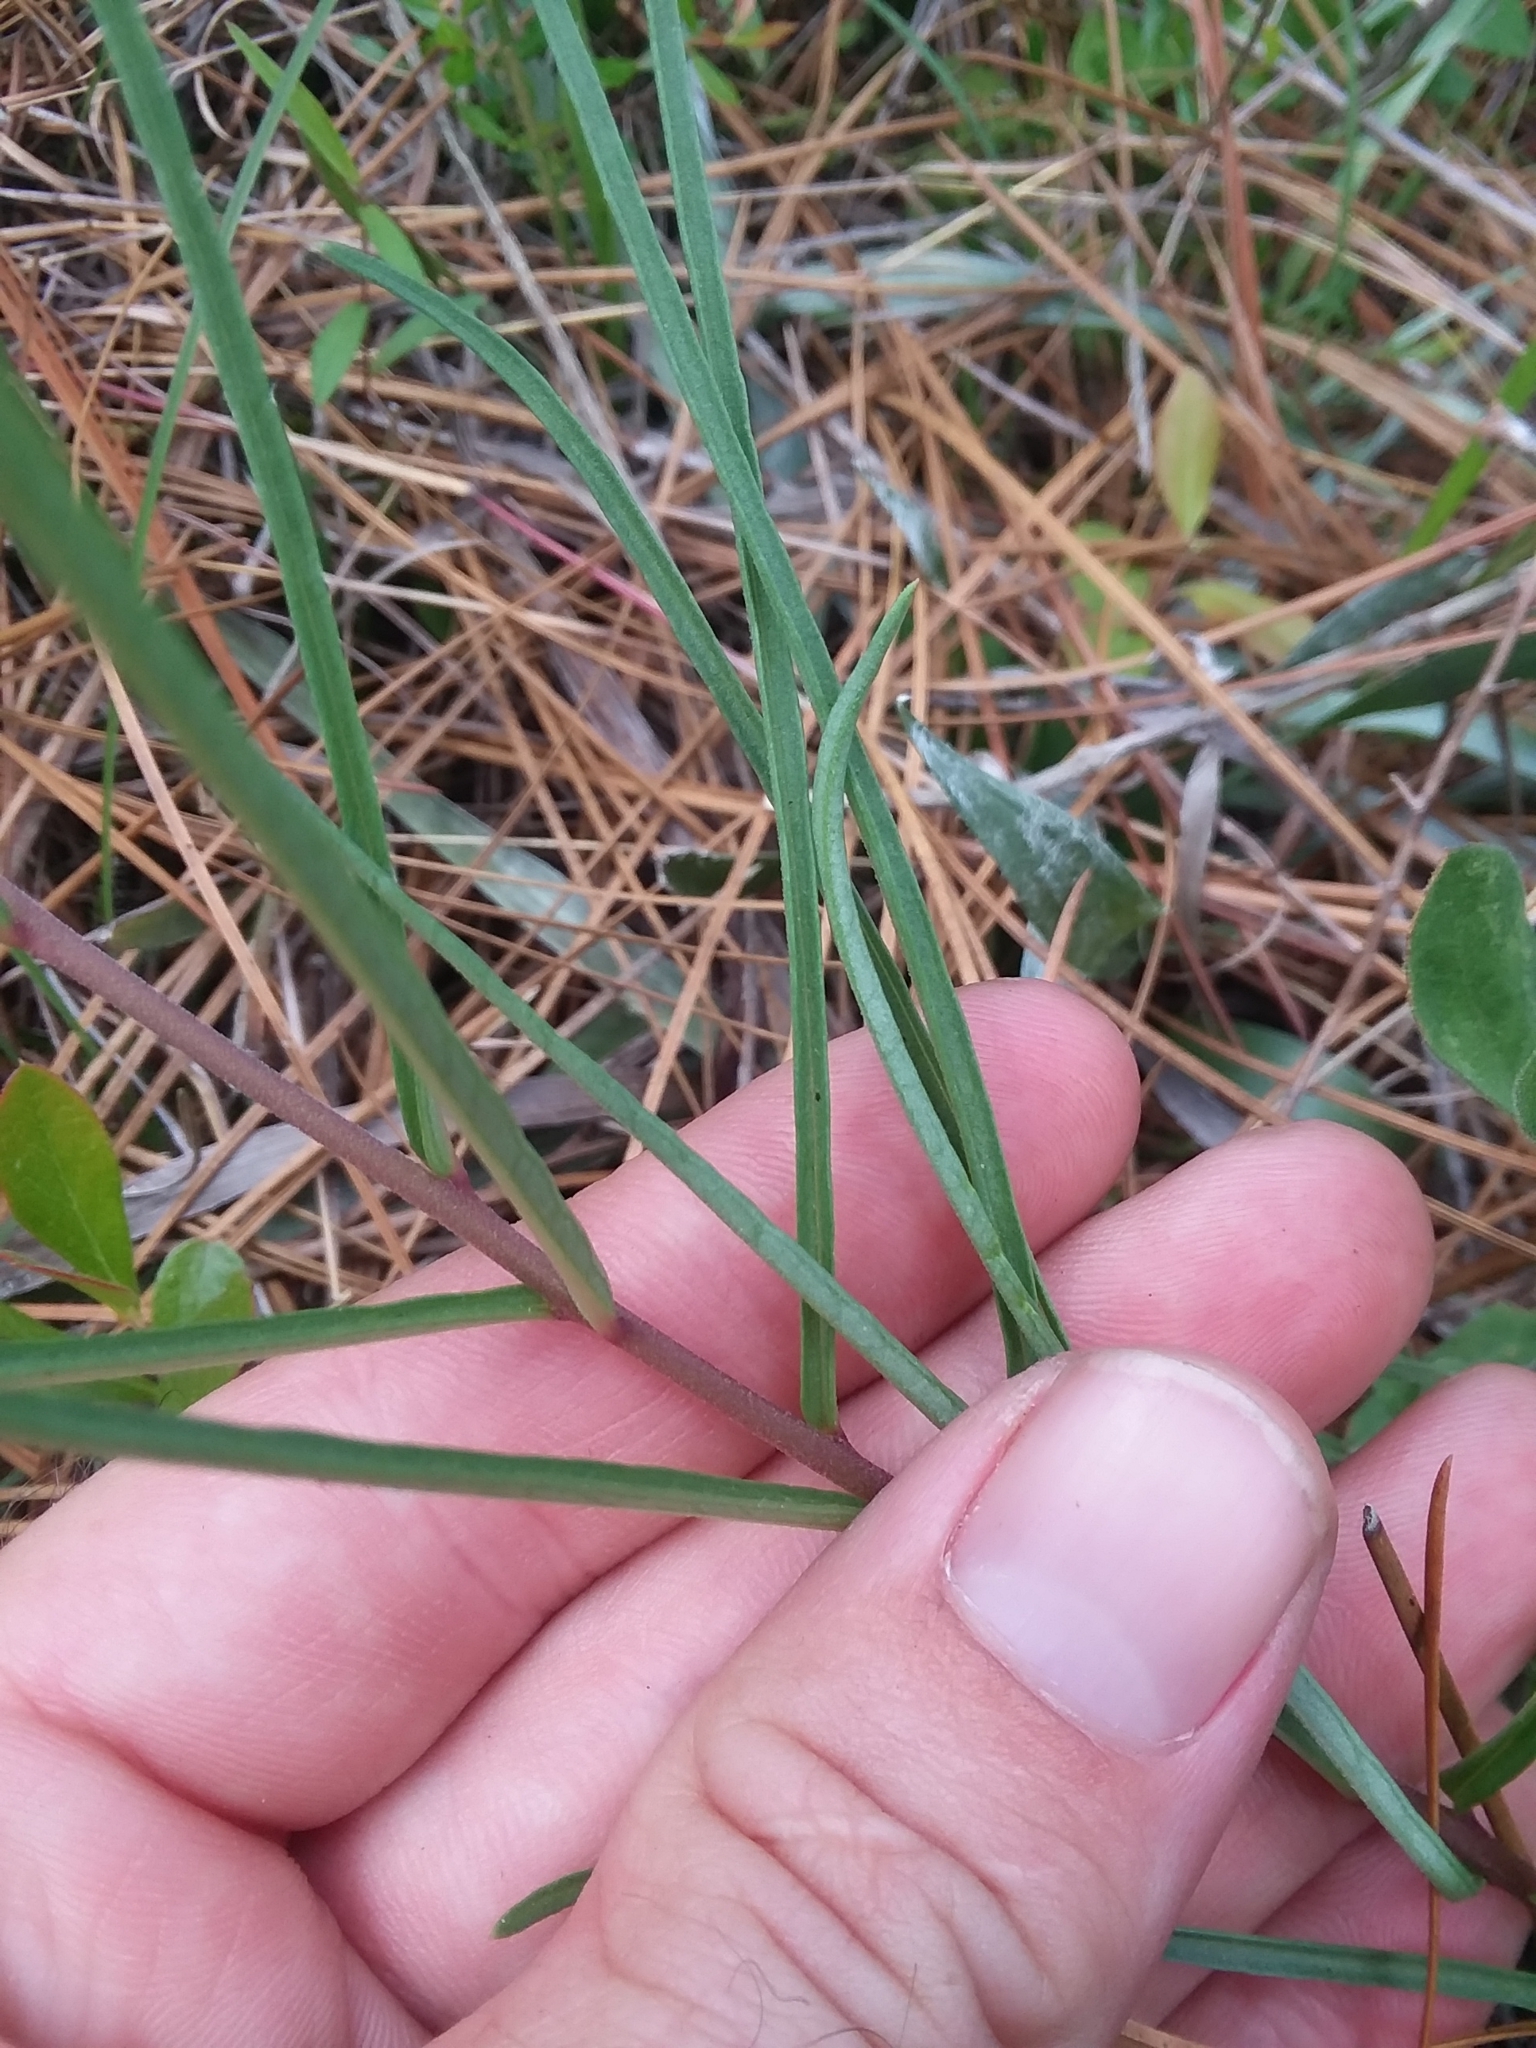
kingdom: Plantae
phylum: Tracheophyta
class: Magnoliopsida
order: Gentianales
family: Apocynaceae
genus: Asclepias
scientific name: Asclepias michauxii
